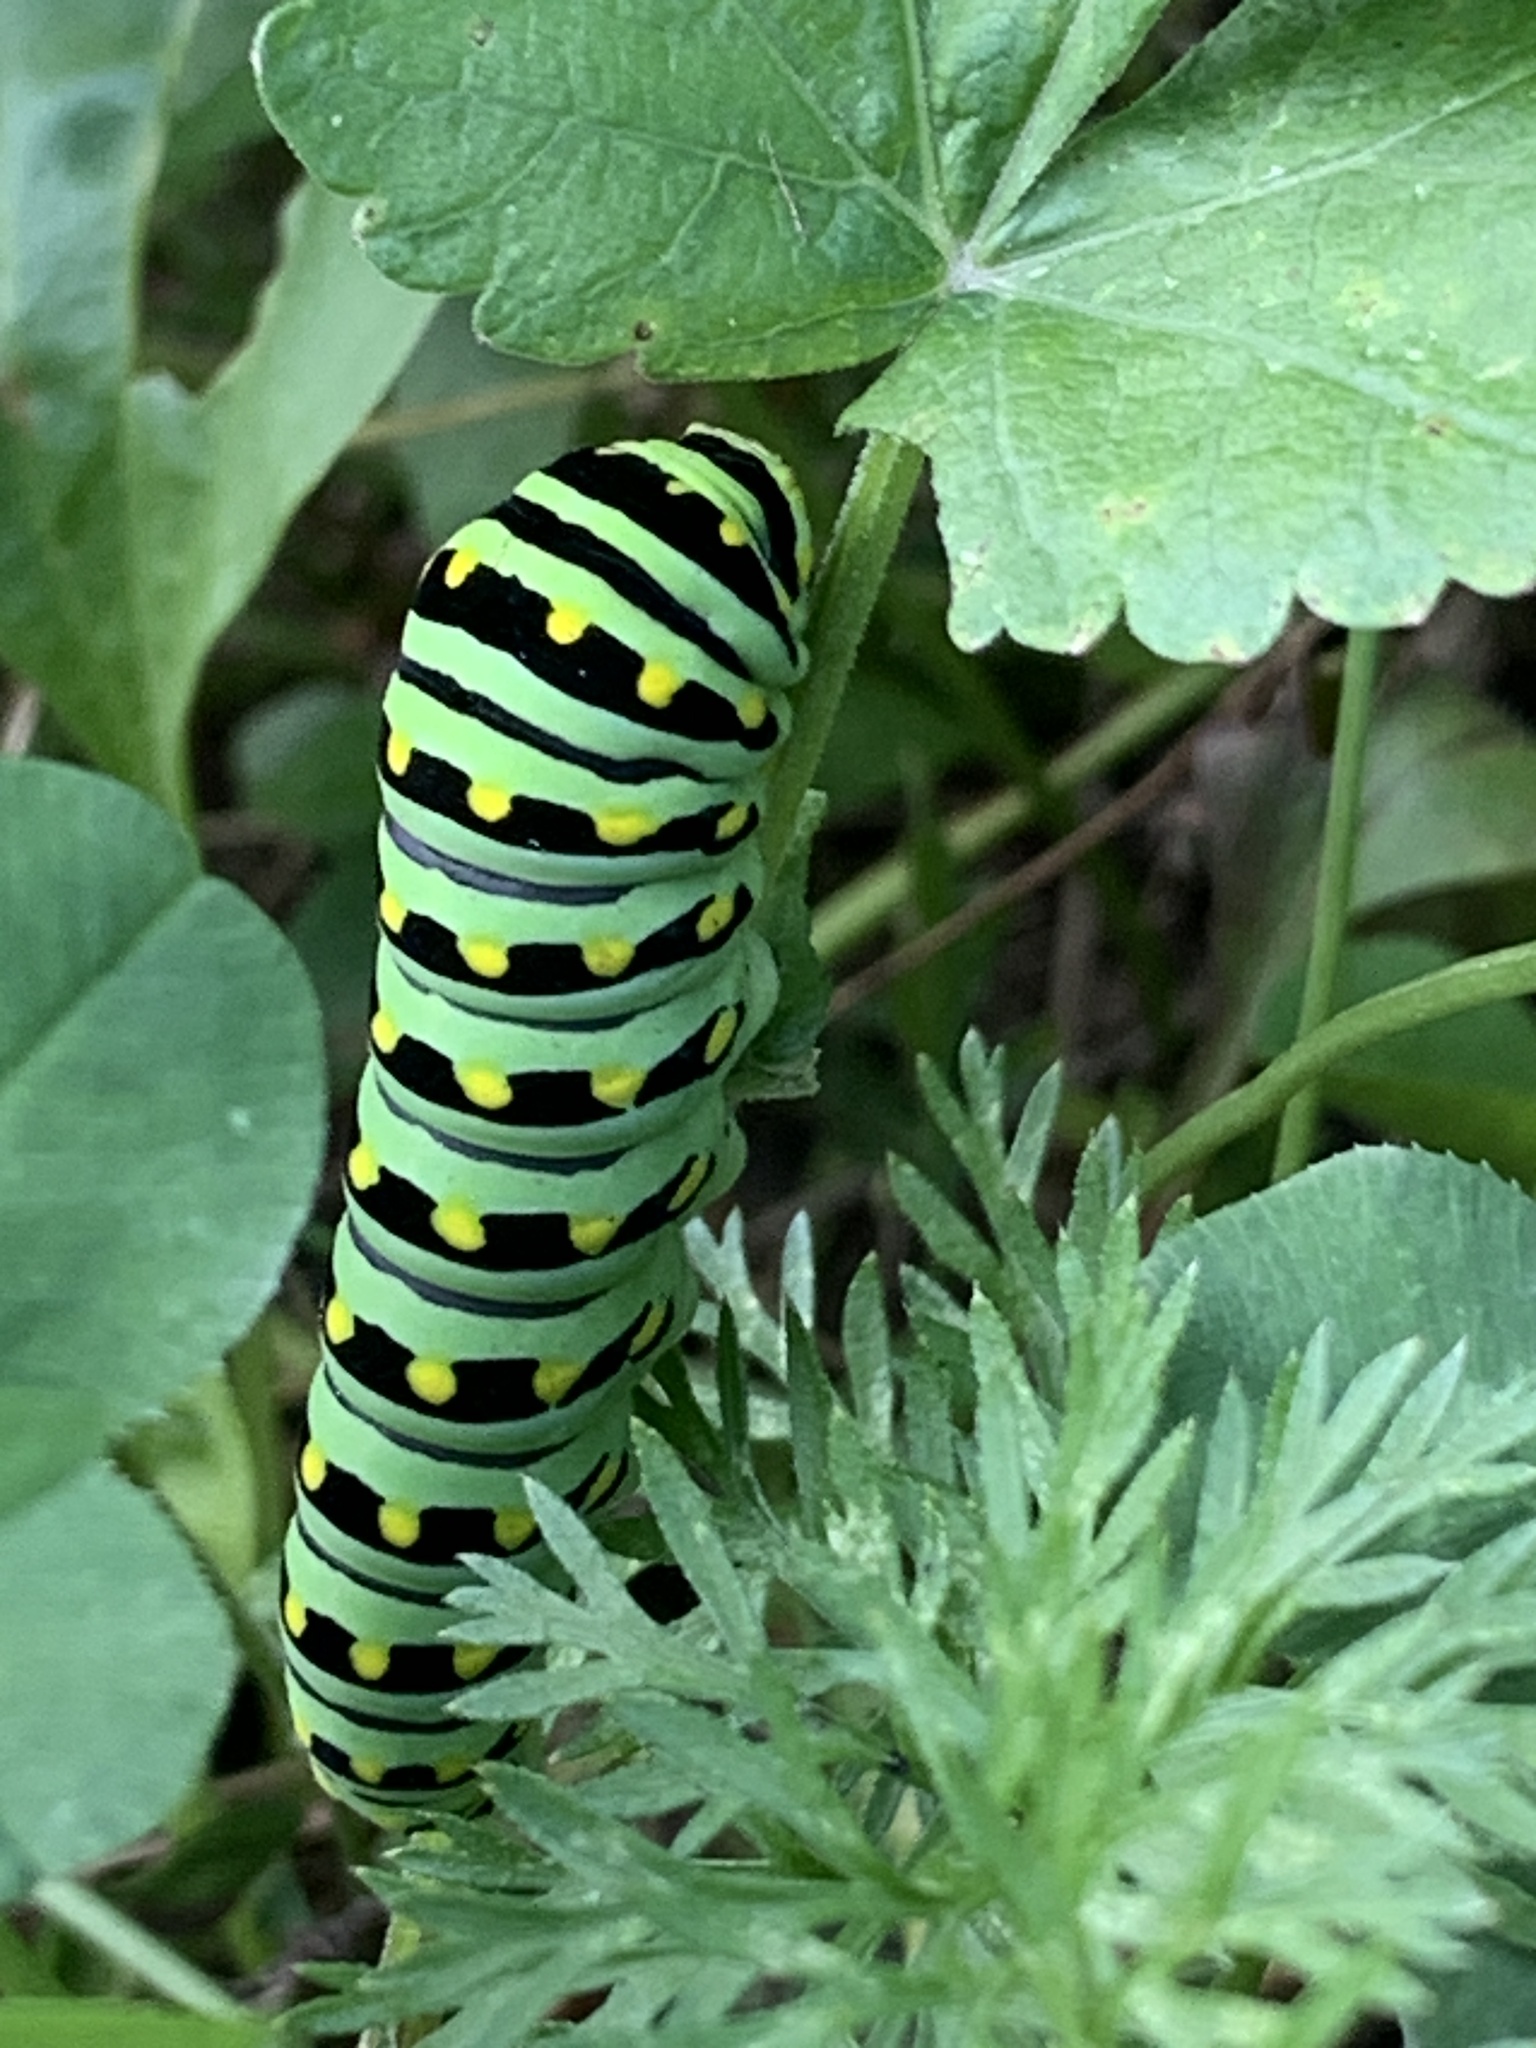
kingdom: Animalia
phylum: Arthropoda
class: Insecta
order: Lepidoptera
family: Papilionidae
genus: Papilio
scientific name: Papilio polyxenes
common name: Black swallowtail
